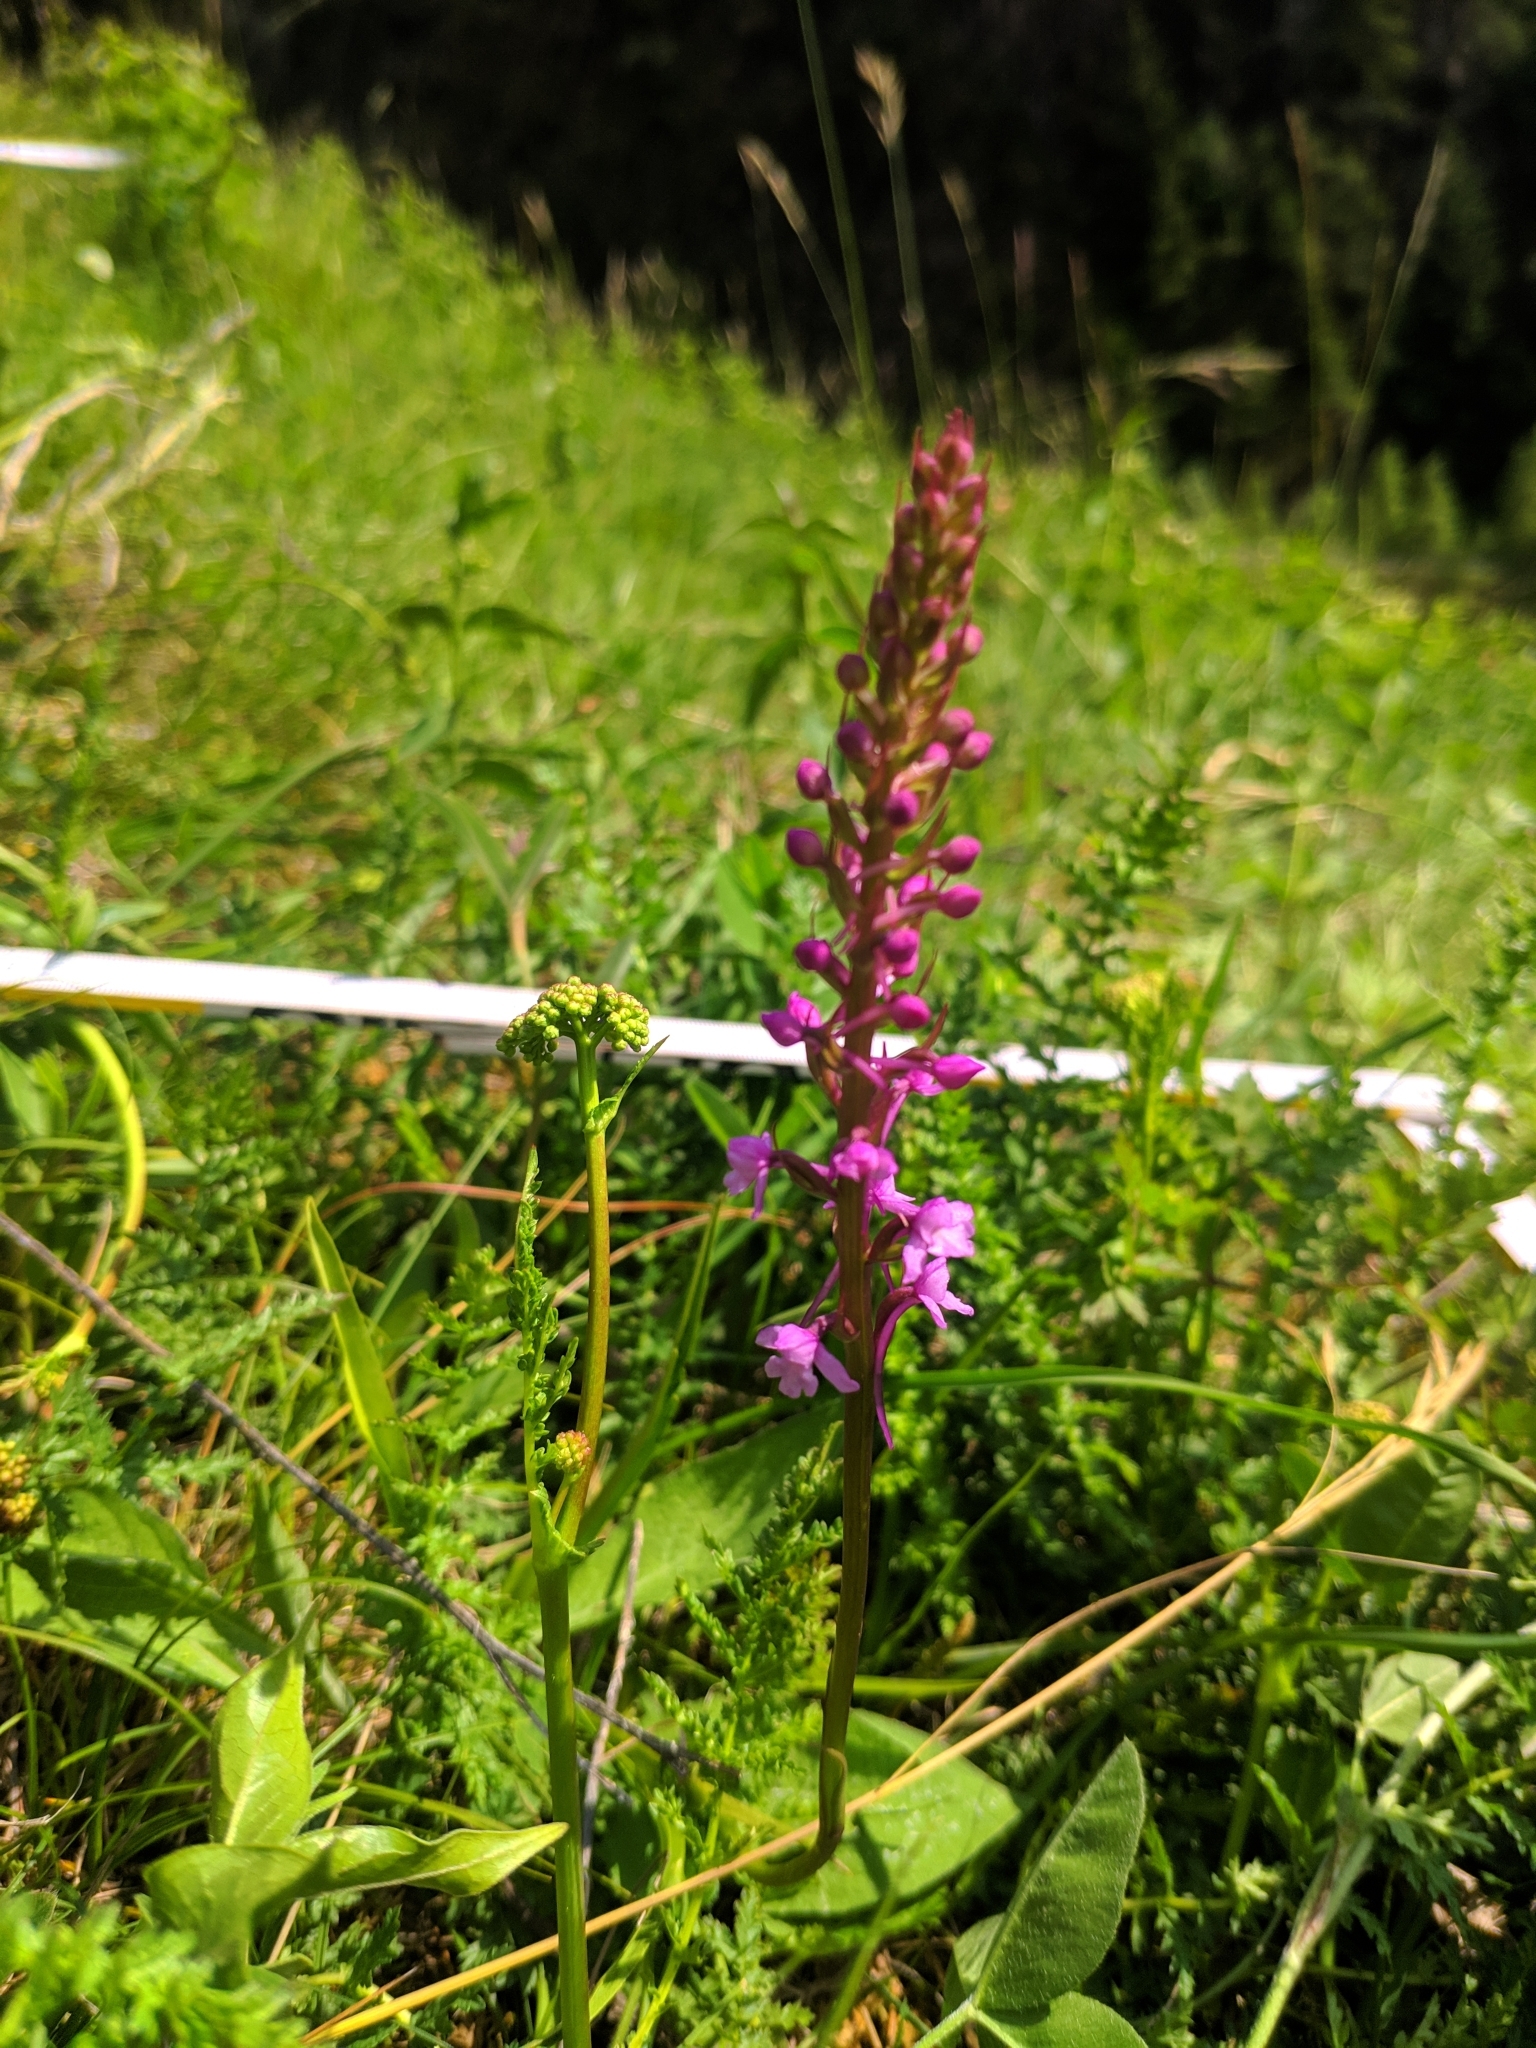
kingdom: Plantae
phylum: Tracheophyta
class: Liliopsida
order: Asparagales
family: Orchidaceae
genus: Gymnadenia
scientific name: Gymnadenia conopsea
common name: Fragrant orchid
